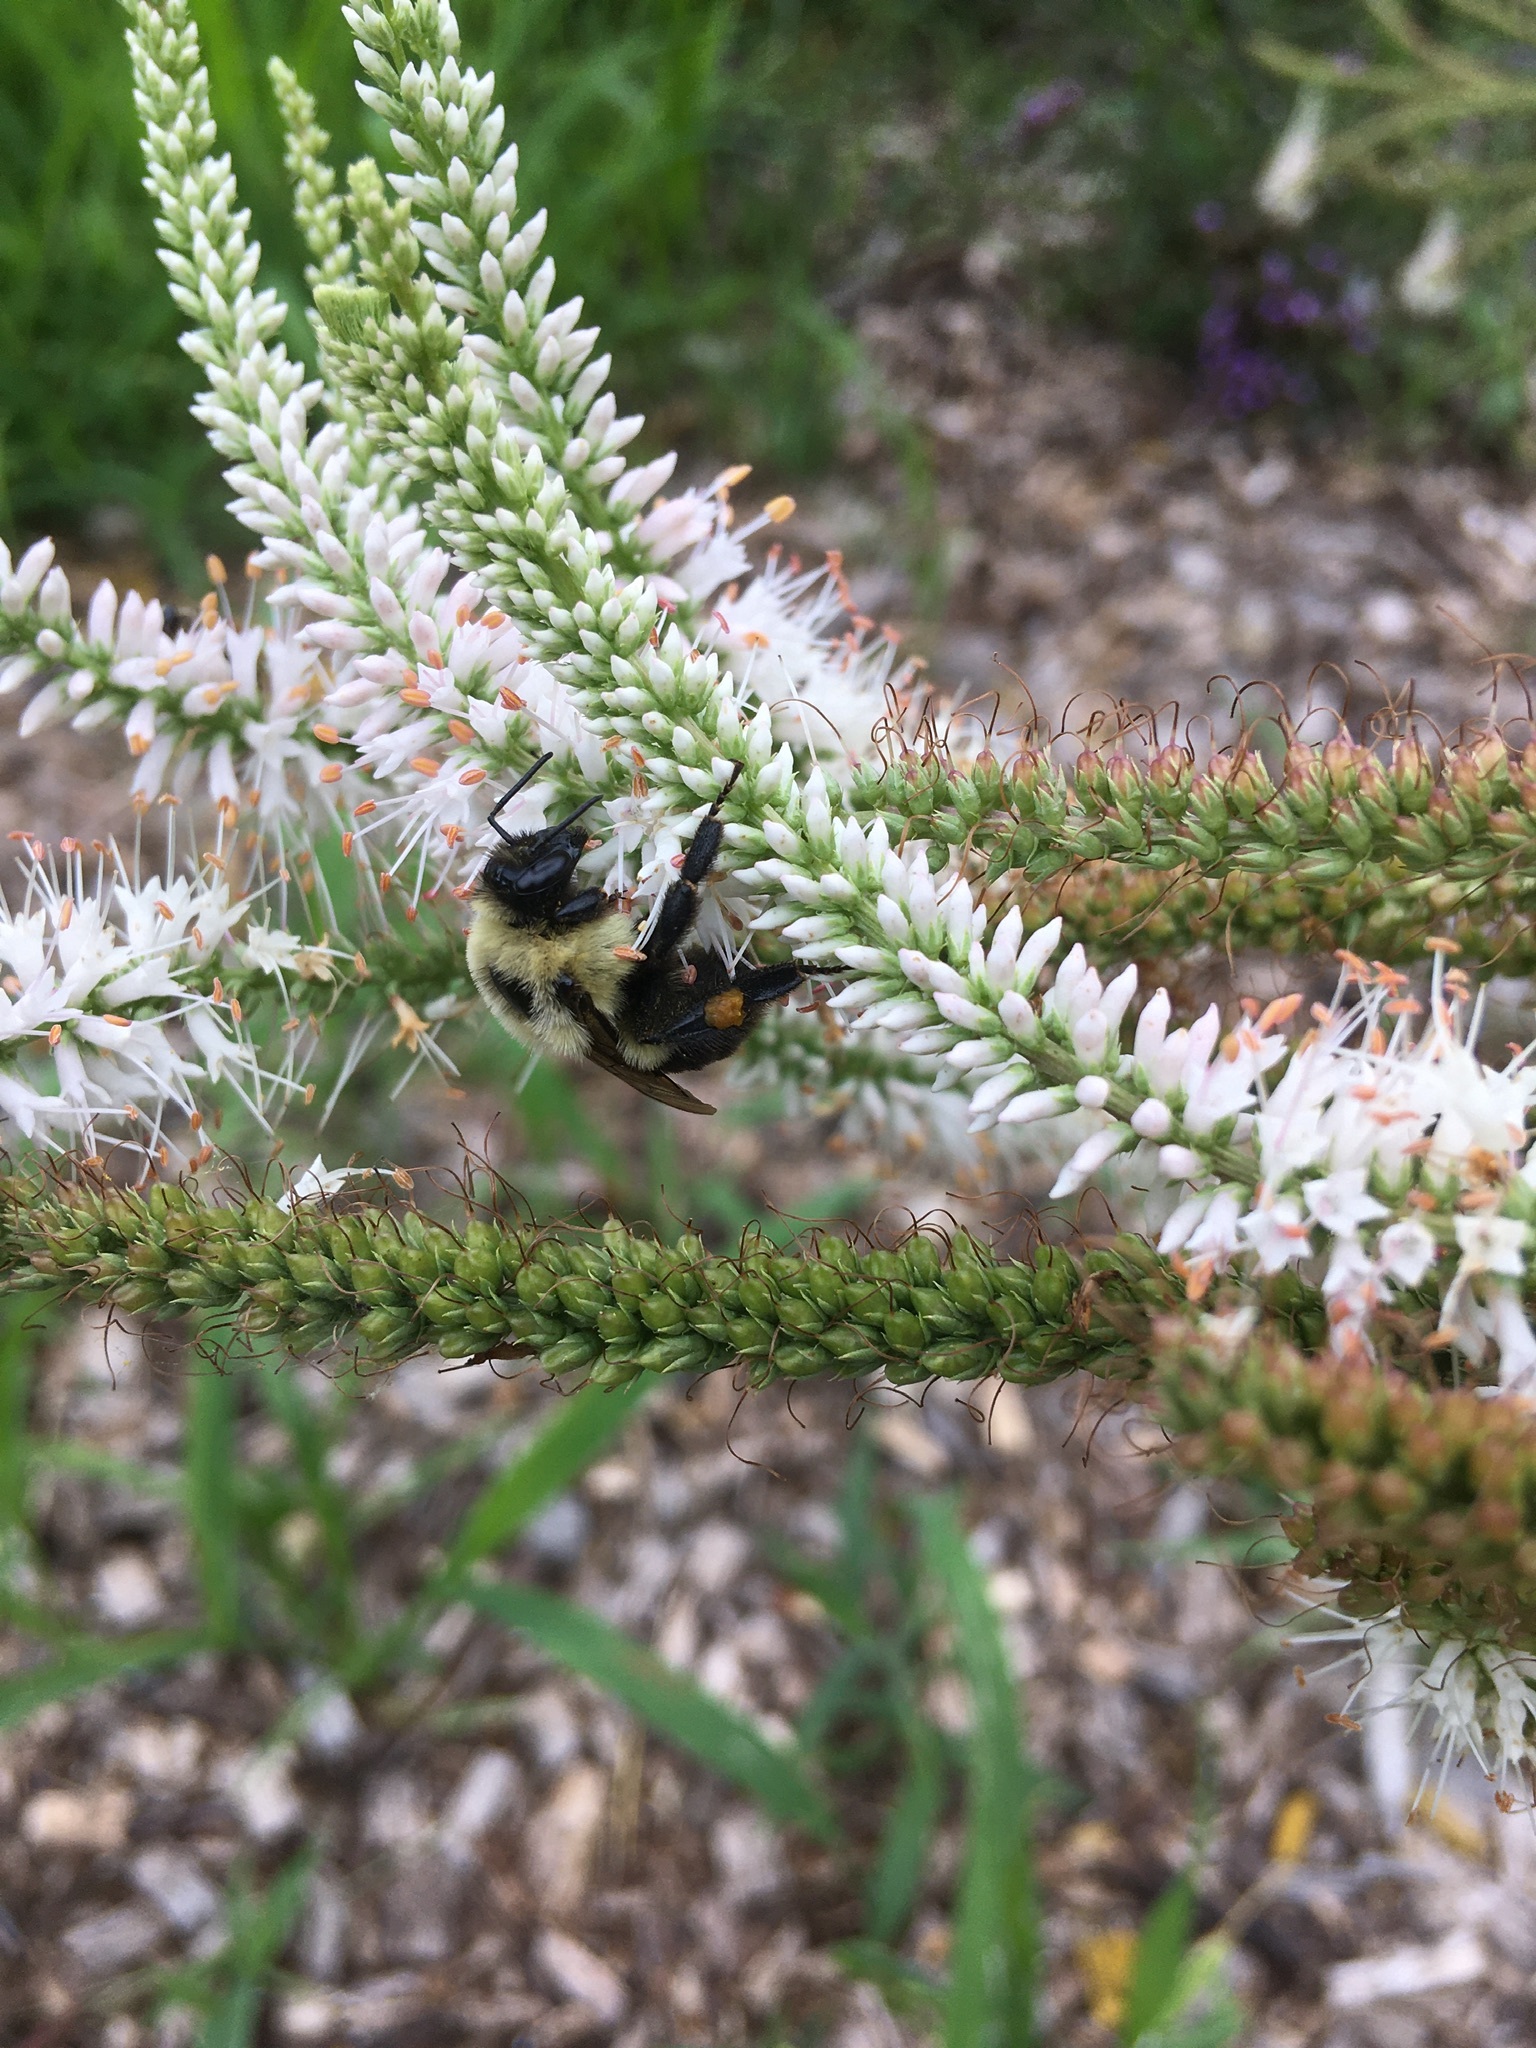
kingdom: Animalia
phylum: Arthropoda
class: Insecta
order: Hymenoptera
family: Apidae
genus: Bombus
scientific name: Bombus impatiens
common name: Common eastern bumble bee
